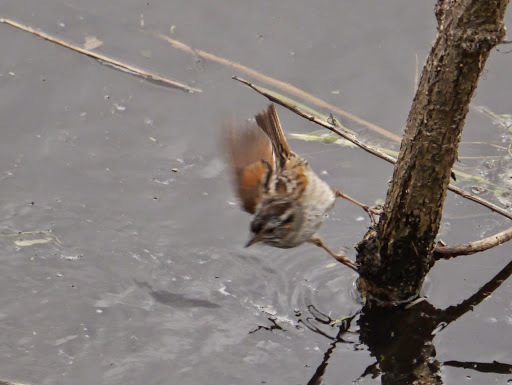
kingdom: Animalia
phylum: Chordata
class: Aves
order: Passeriformes
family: Passerellidae
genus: Melospiza
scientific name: Melospiza georgiana
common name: Swamp sparrow
